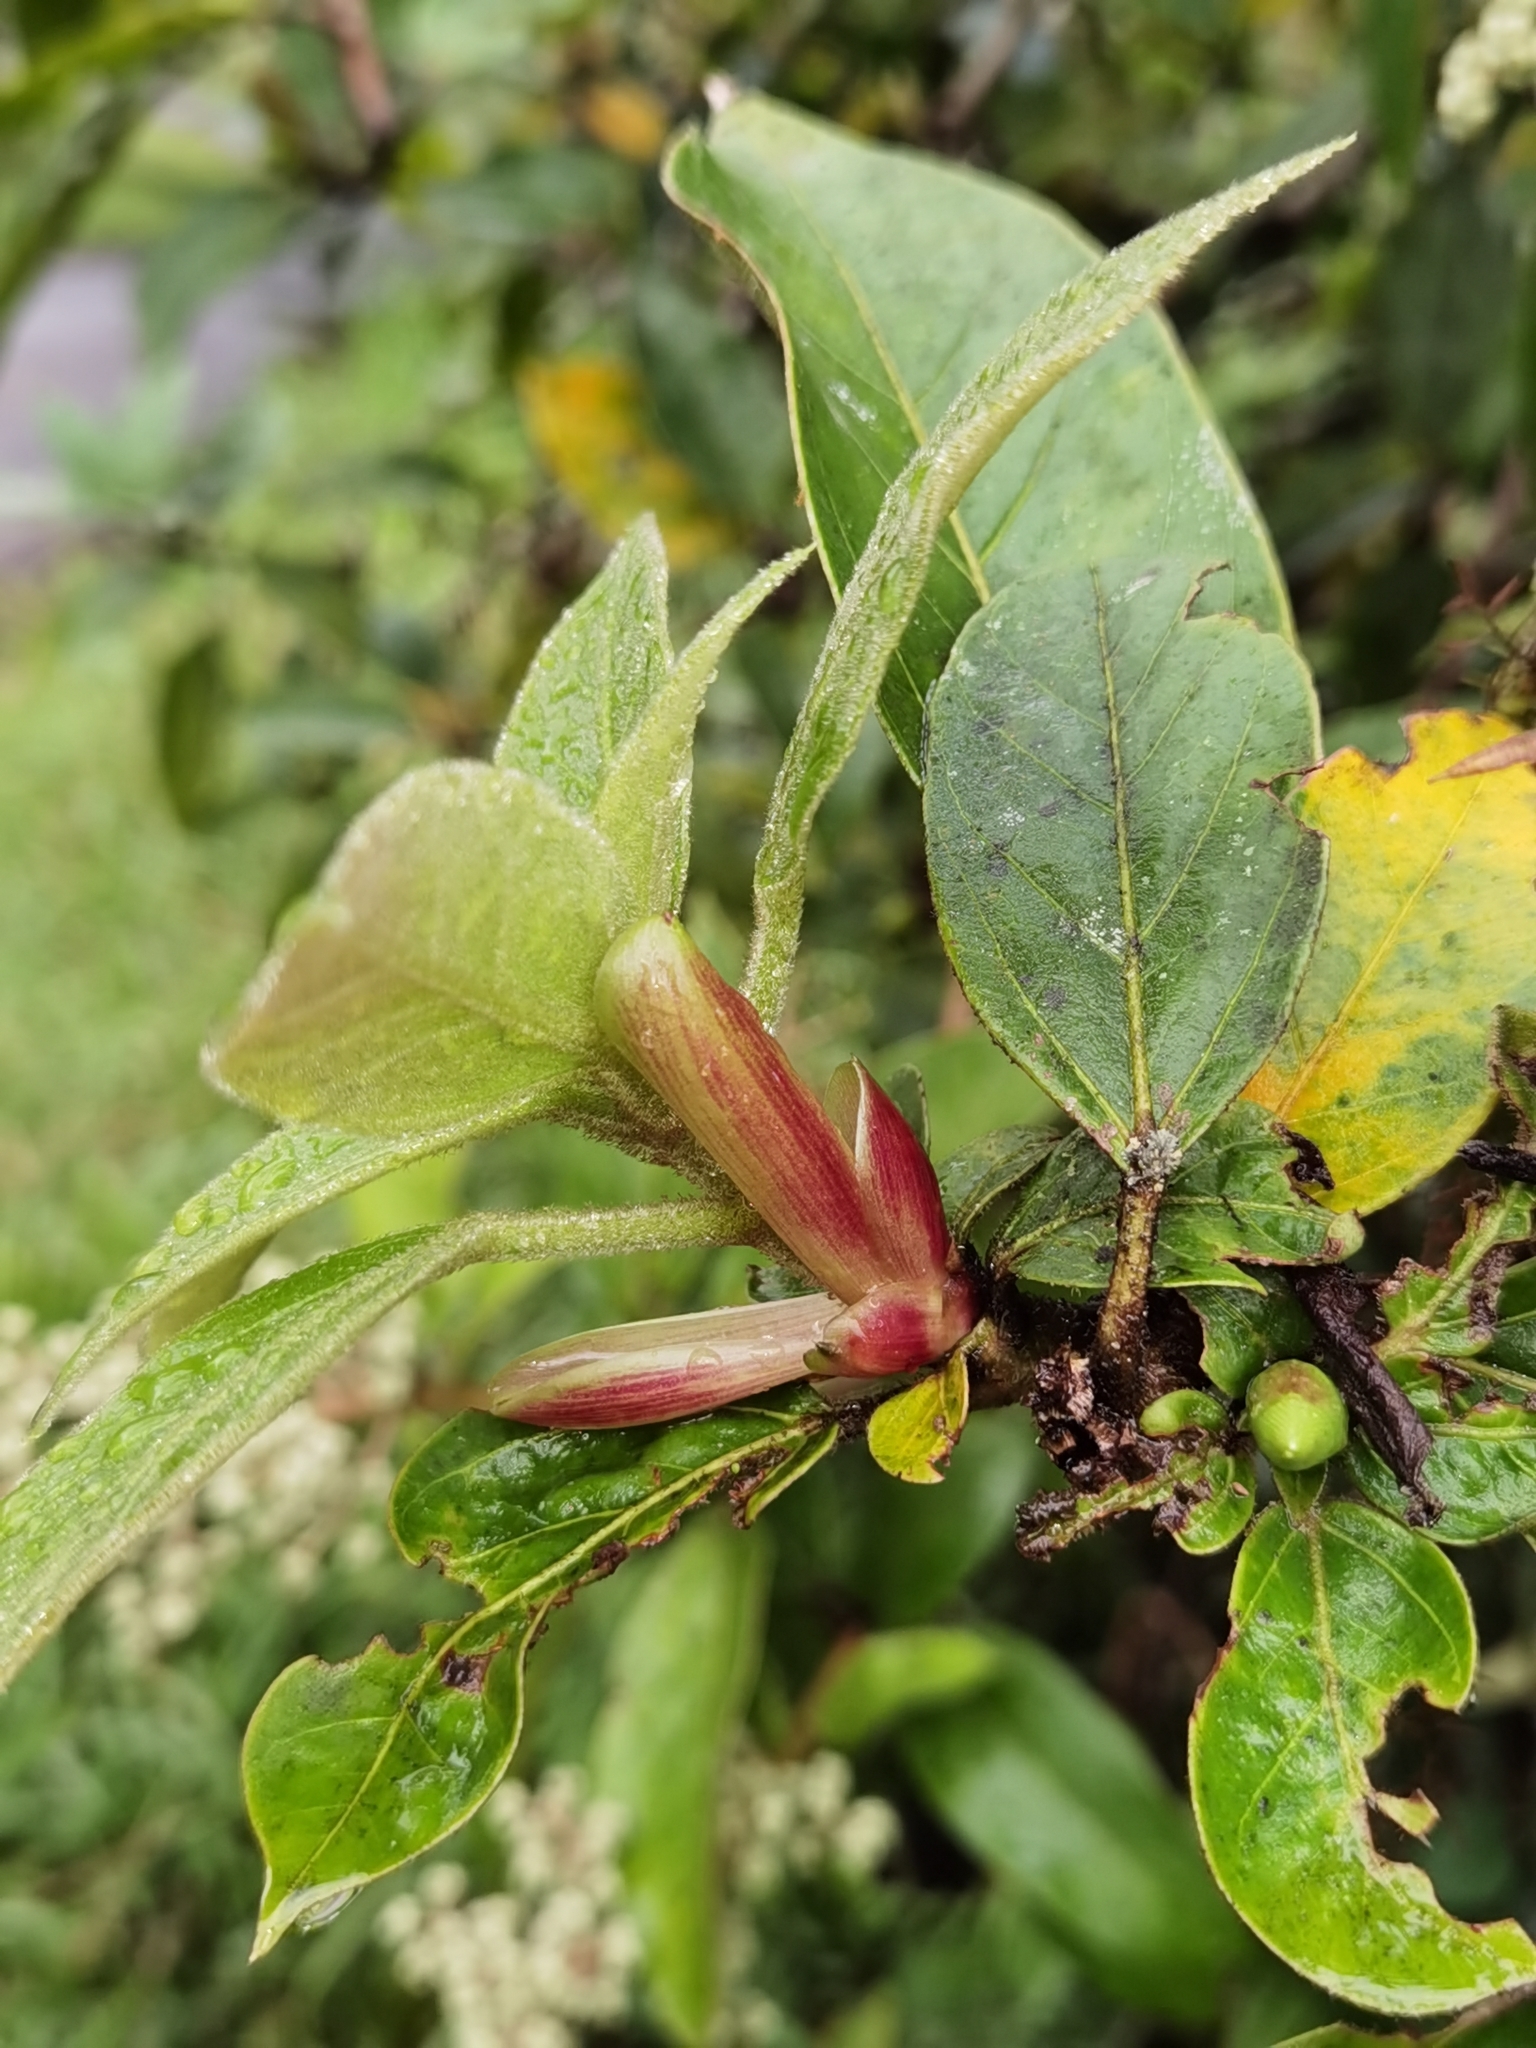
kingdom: Plantae
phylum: Tracheophyta
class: Magnoliopsida
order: Apiales
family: Araliaceae
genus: Oreopanax
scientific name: Oreopanax oerstedianus
